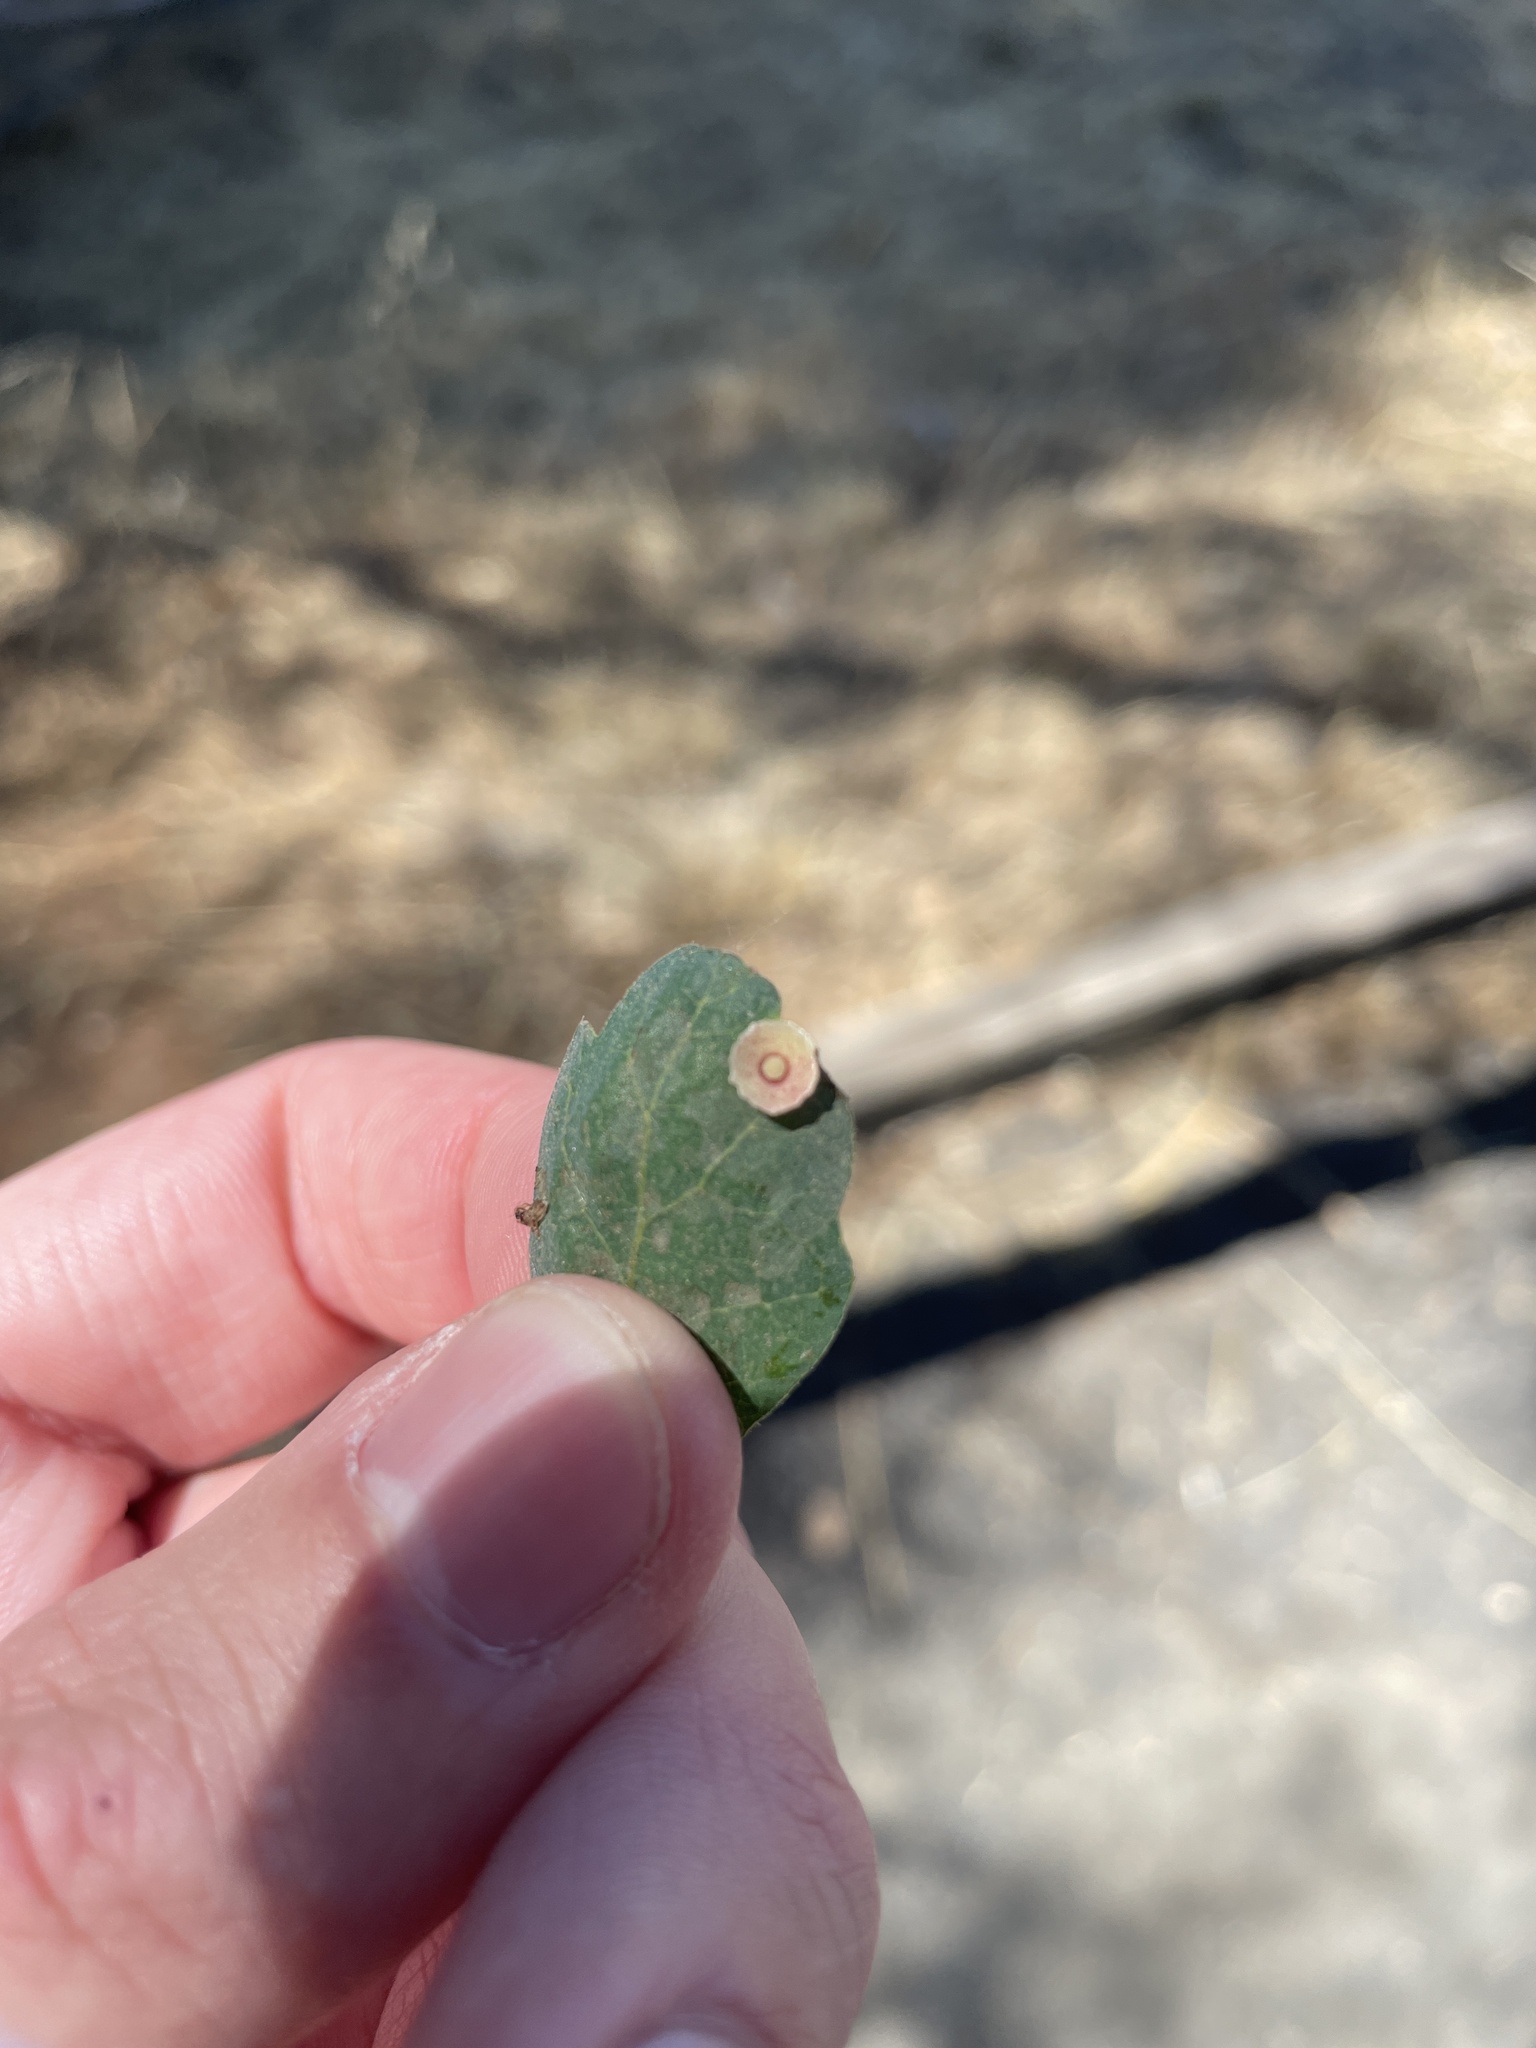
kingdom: Animalia
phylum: Arthropoda
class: Insecta
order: Hymenoptera
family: Cynipidae
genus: Andricus
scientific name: Andricus
